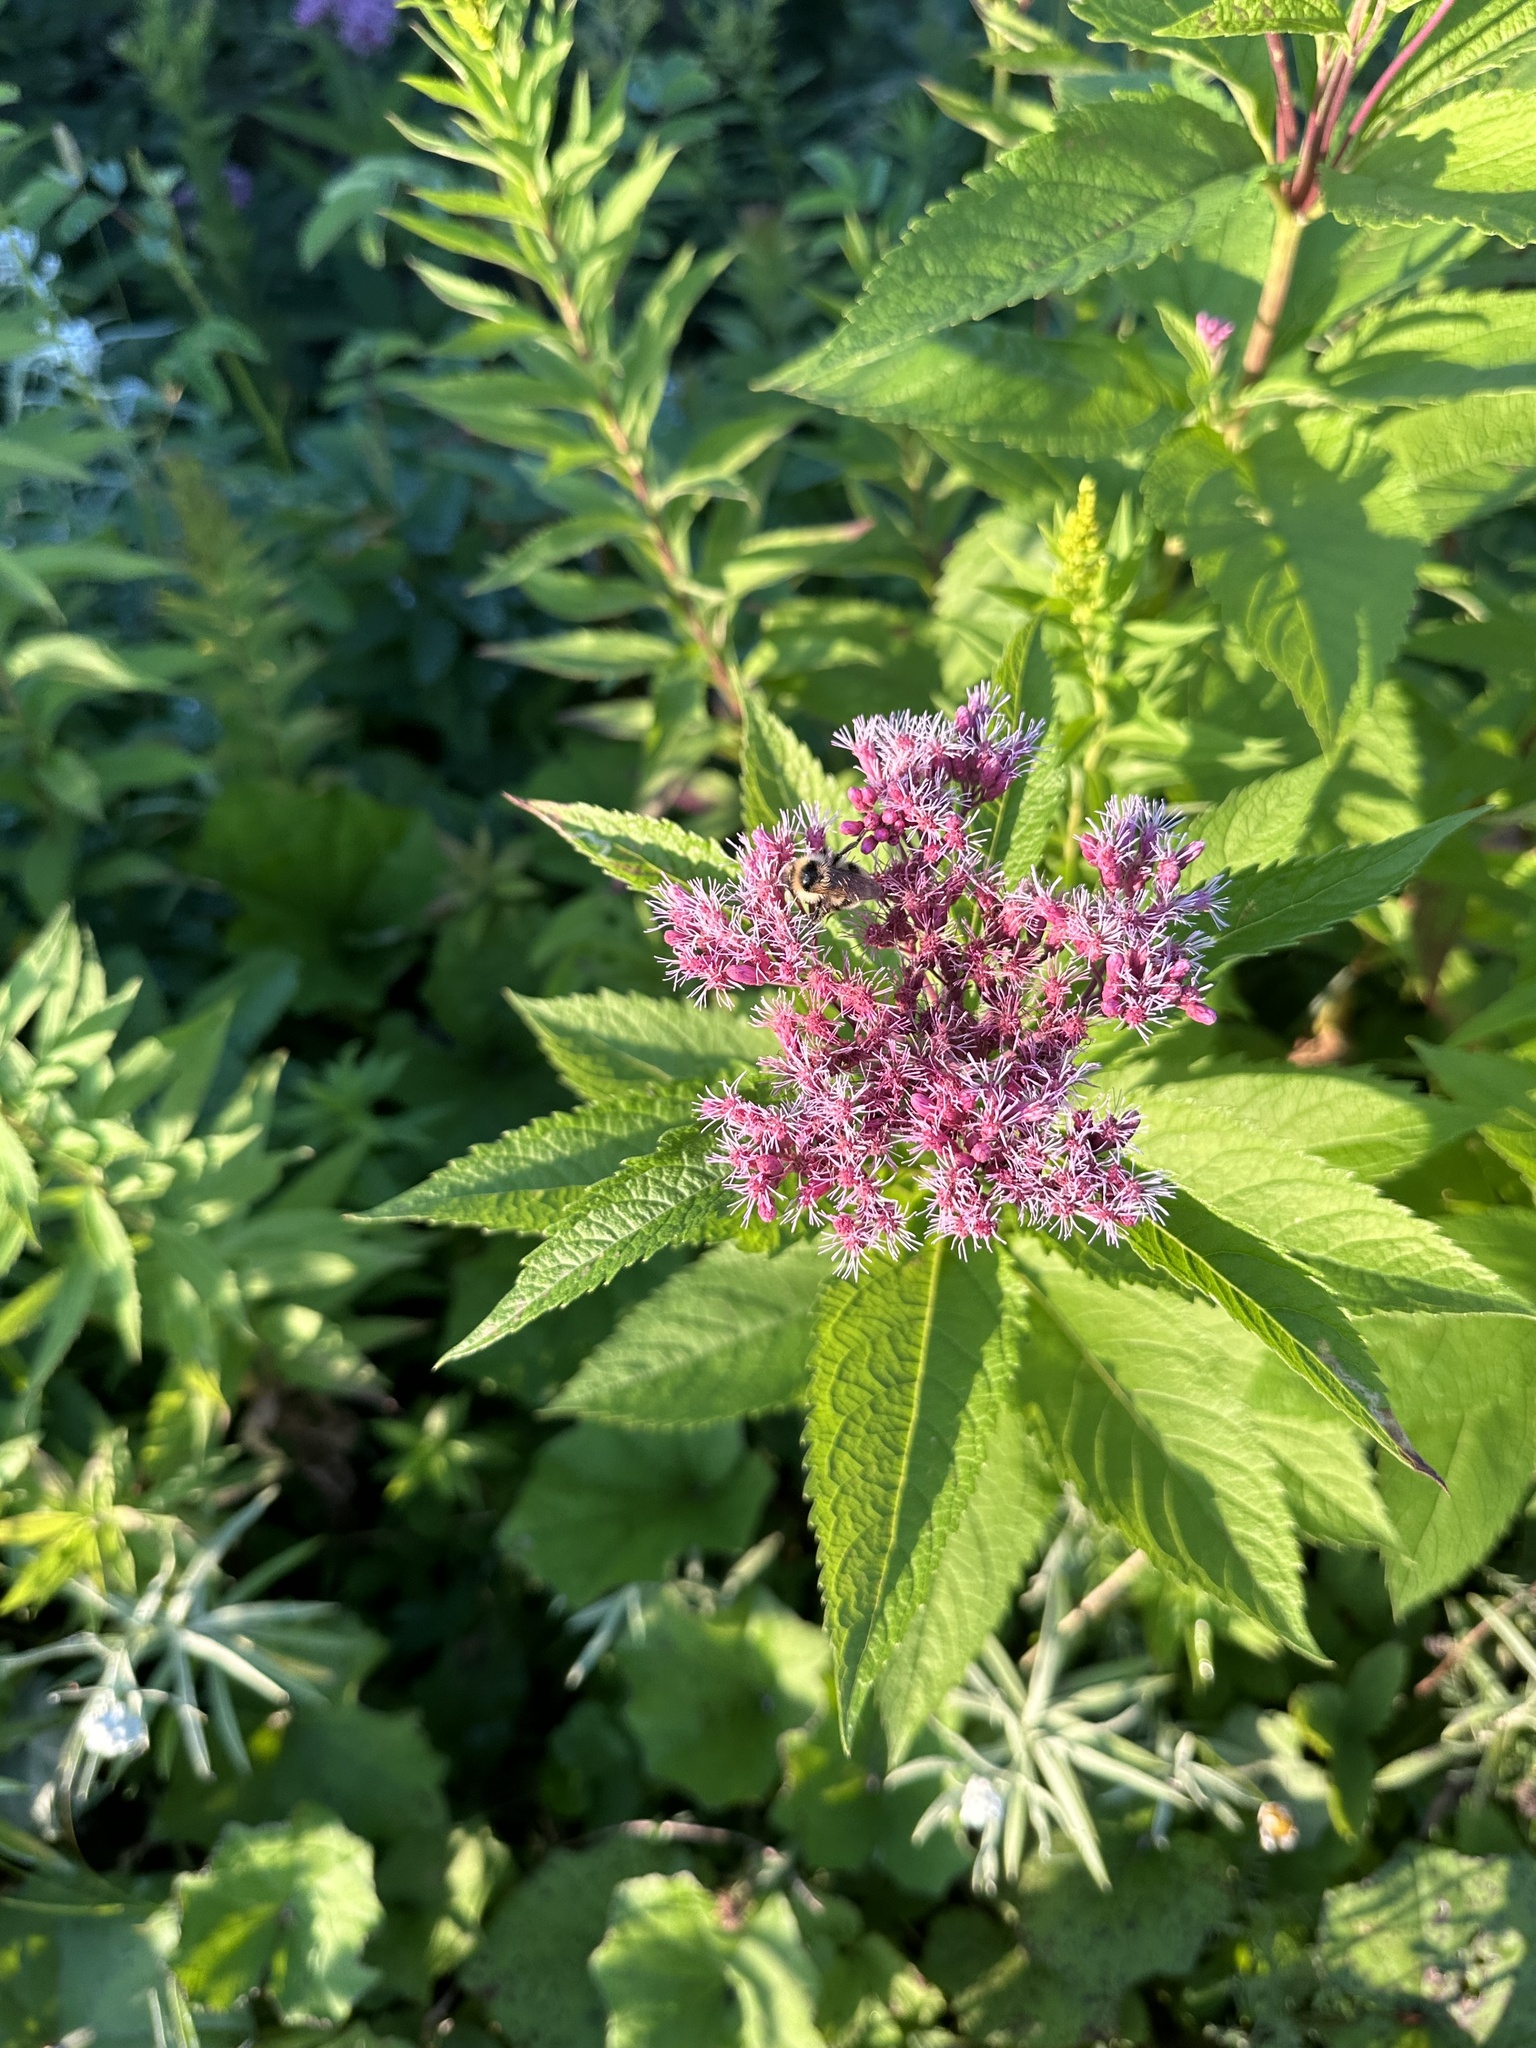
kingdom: Plantae
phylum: Tracheophyta
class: Magnoliopsida
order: Asterales
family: Asteraceae
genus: Eutrochium
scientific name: Eutrochium maculatum
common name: Spotted joe pye weed
